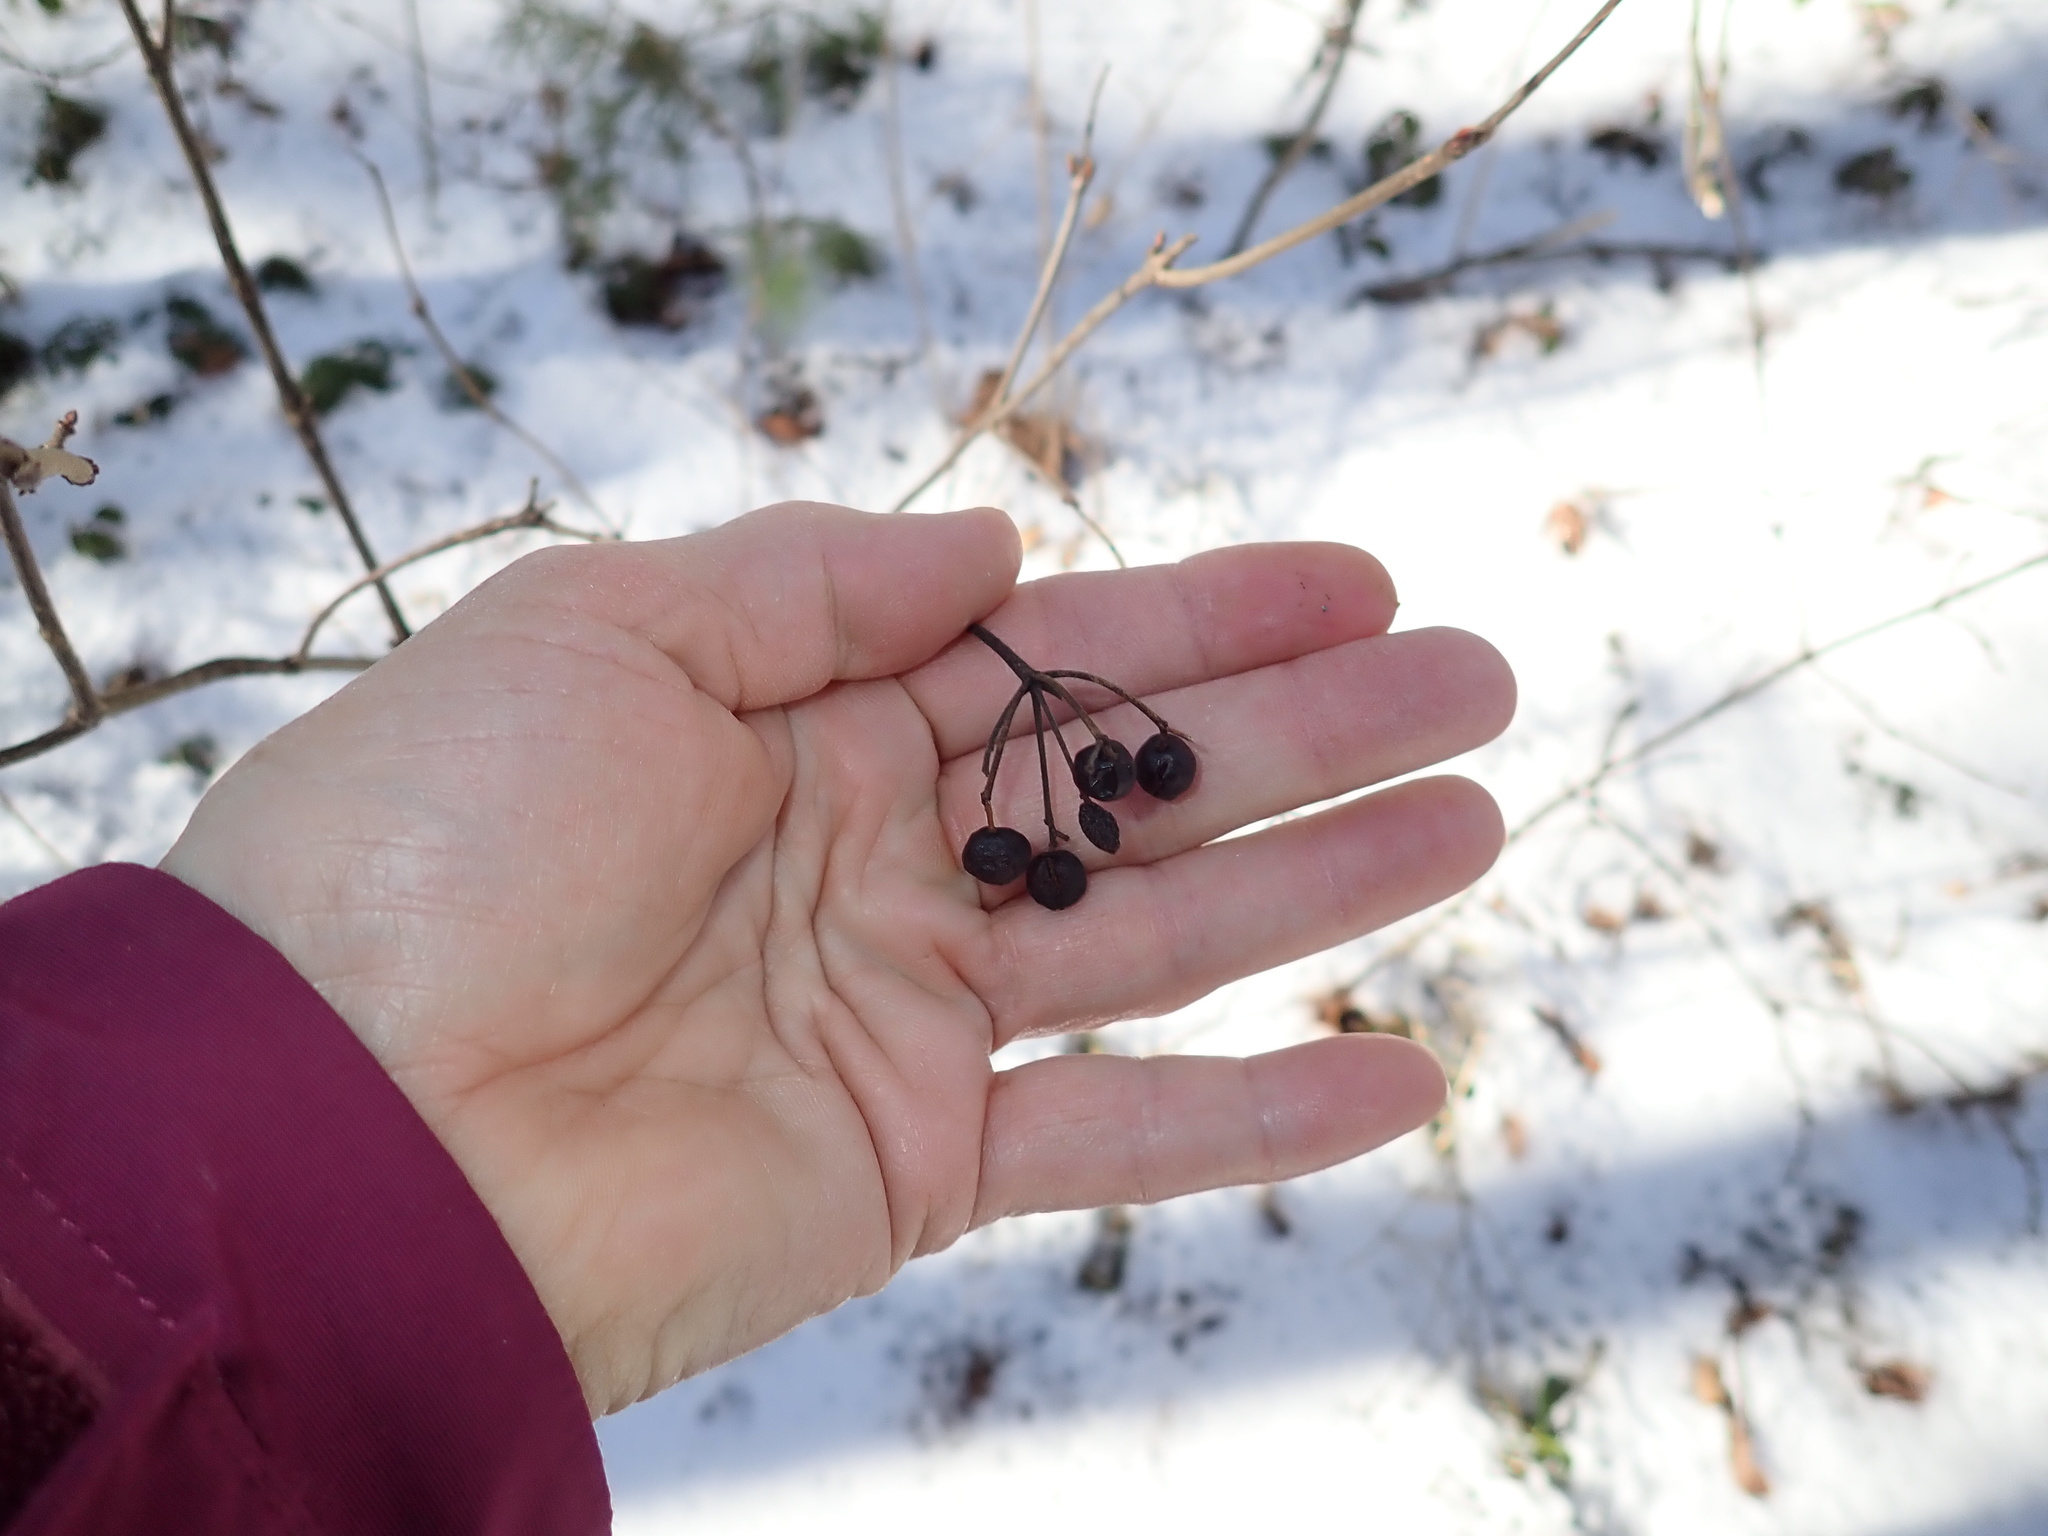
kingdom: Plantae
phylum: Tracheophyta
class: Magnoliopsida
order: Dipsacales
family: Viburnaceae
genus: Viburnum
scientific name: Viburnum acerifolium
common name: Dockmackie
